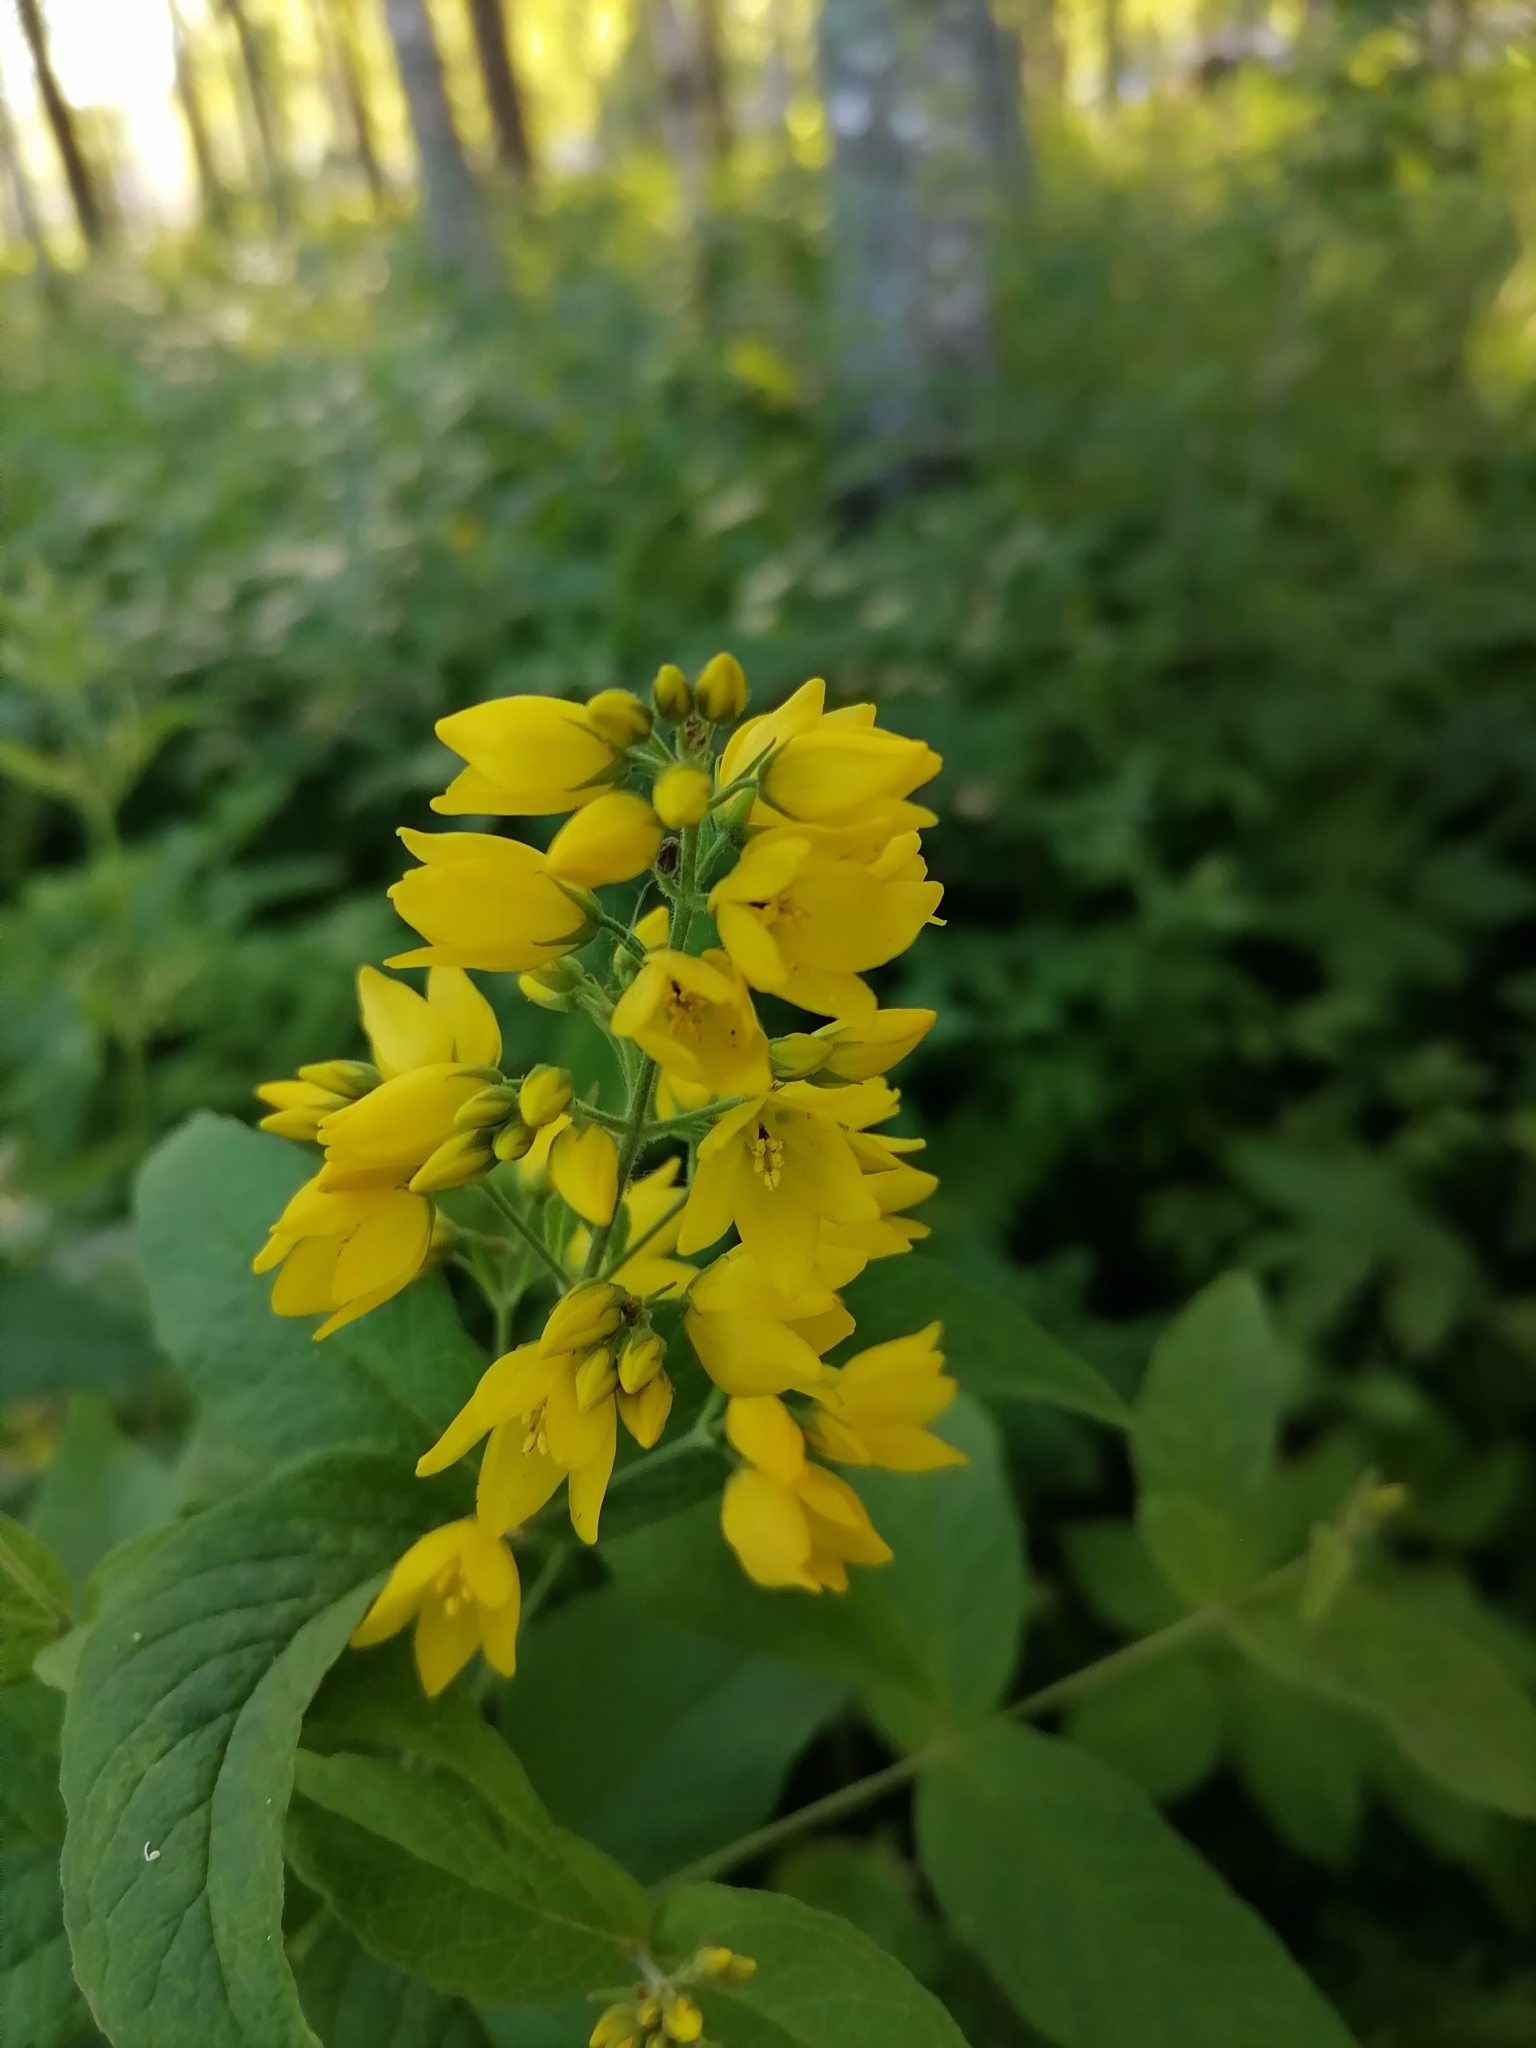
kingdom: Plantae
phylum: Tracheophyta
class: Magnoliopsida
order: Ericales
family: Primulaceae
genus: Lysimachia
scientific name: Lysimachia vulgaris
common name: Yellow loosestrife
